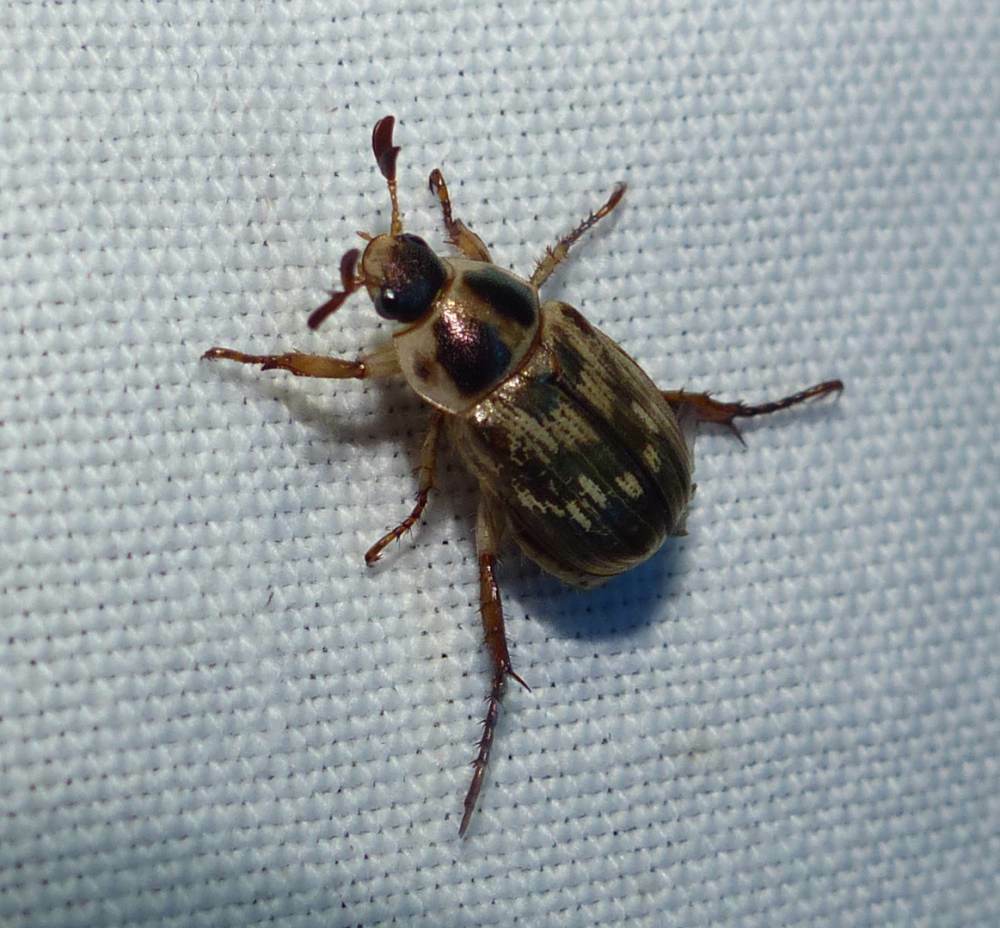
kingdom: Animalia
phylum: Arthropoda
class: Insecta
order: Coleoptera
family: Scarabaeidae
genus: Exomala
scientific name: Exomala orientalis
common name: Oriental beetle
